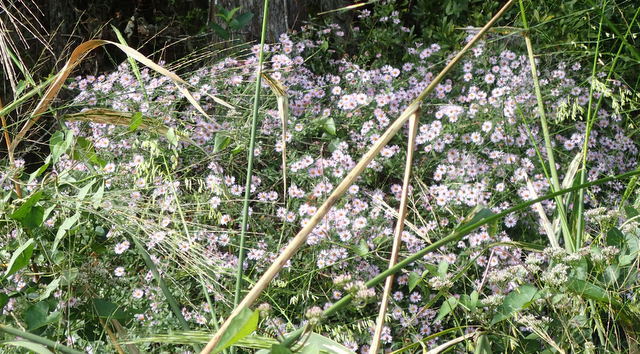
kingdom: Plantae
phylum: Tracheophyta
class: Magnoliopsida
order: Asterales
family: Asteraceae
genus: Ampelaster
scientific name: Ampelaster carolinianus
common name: Climbing aster
